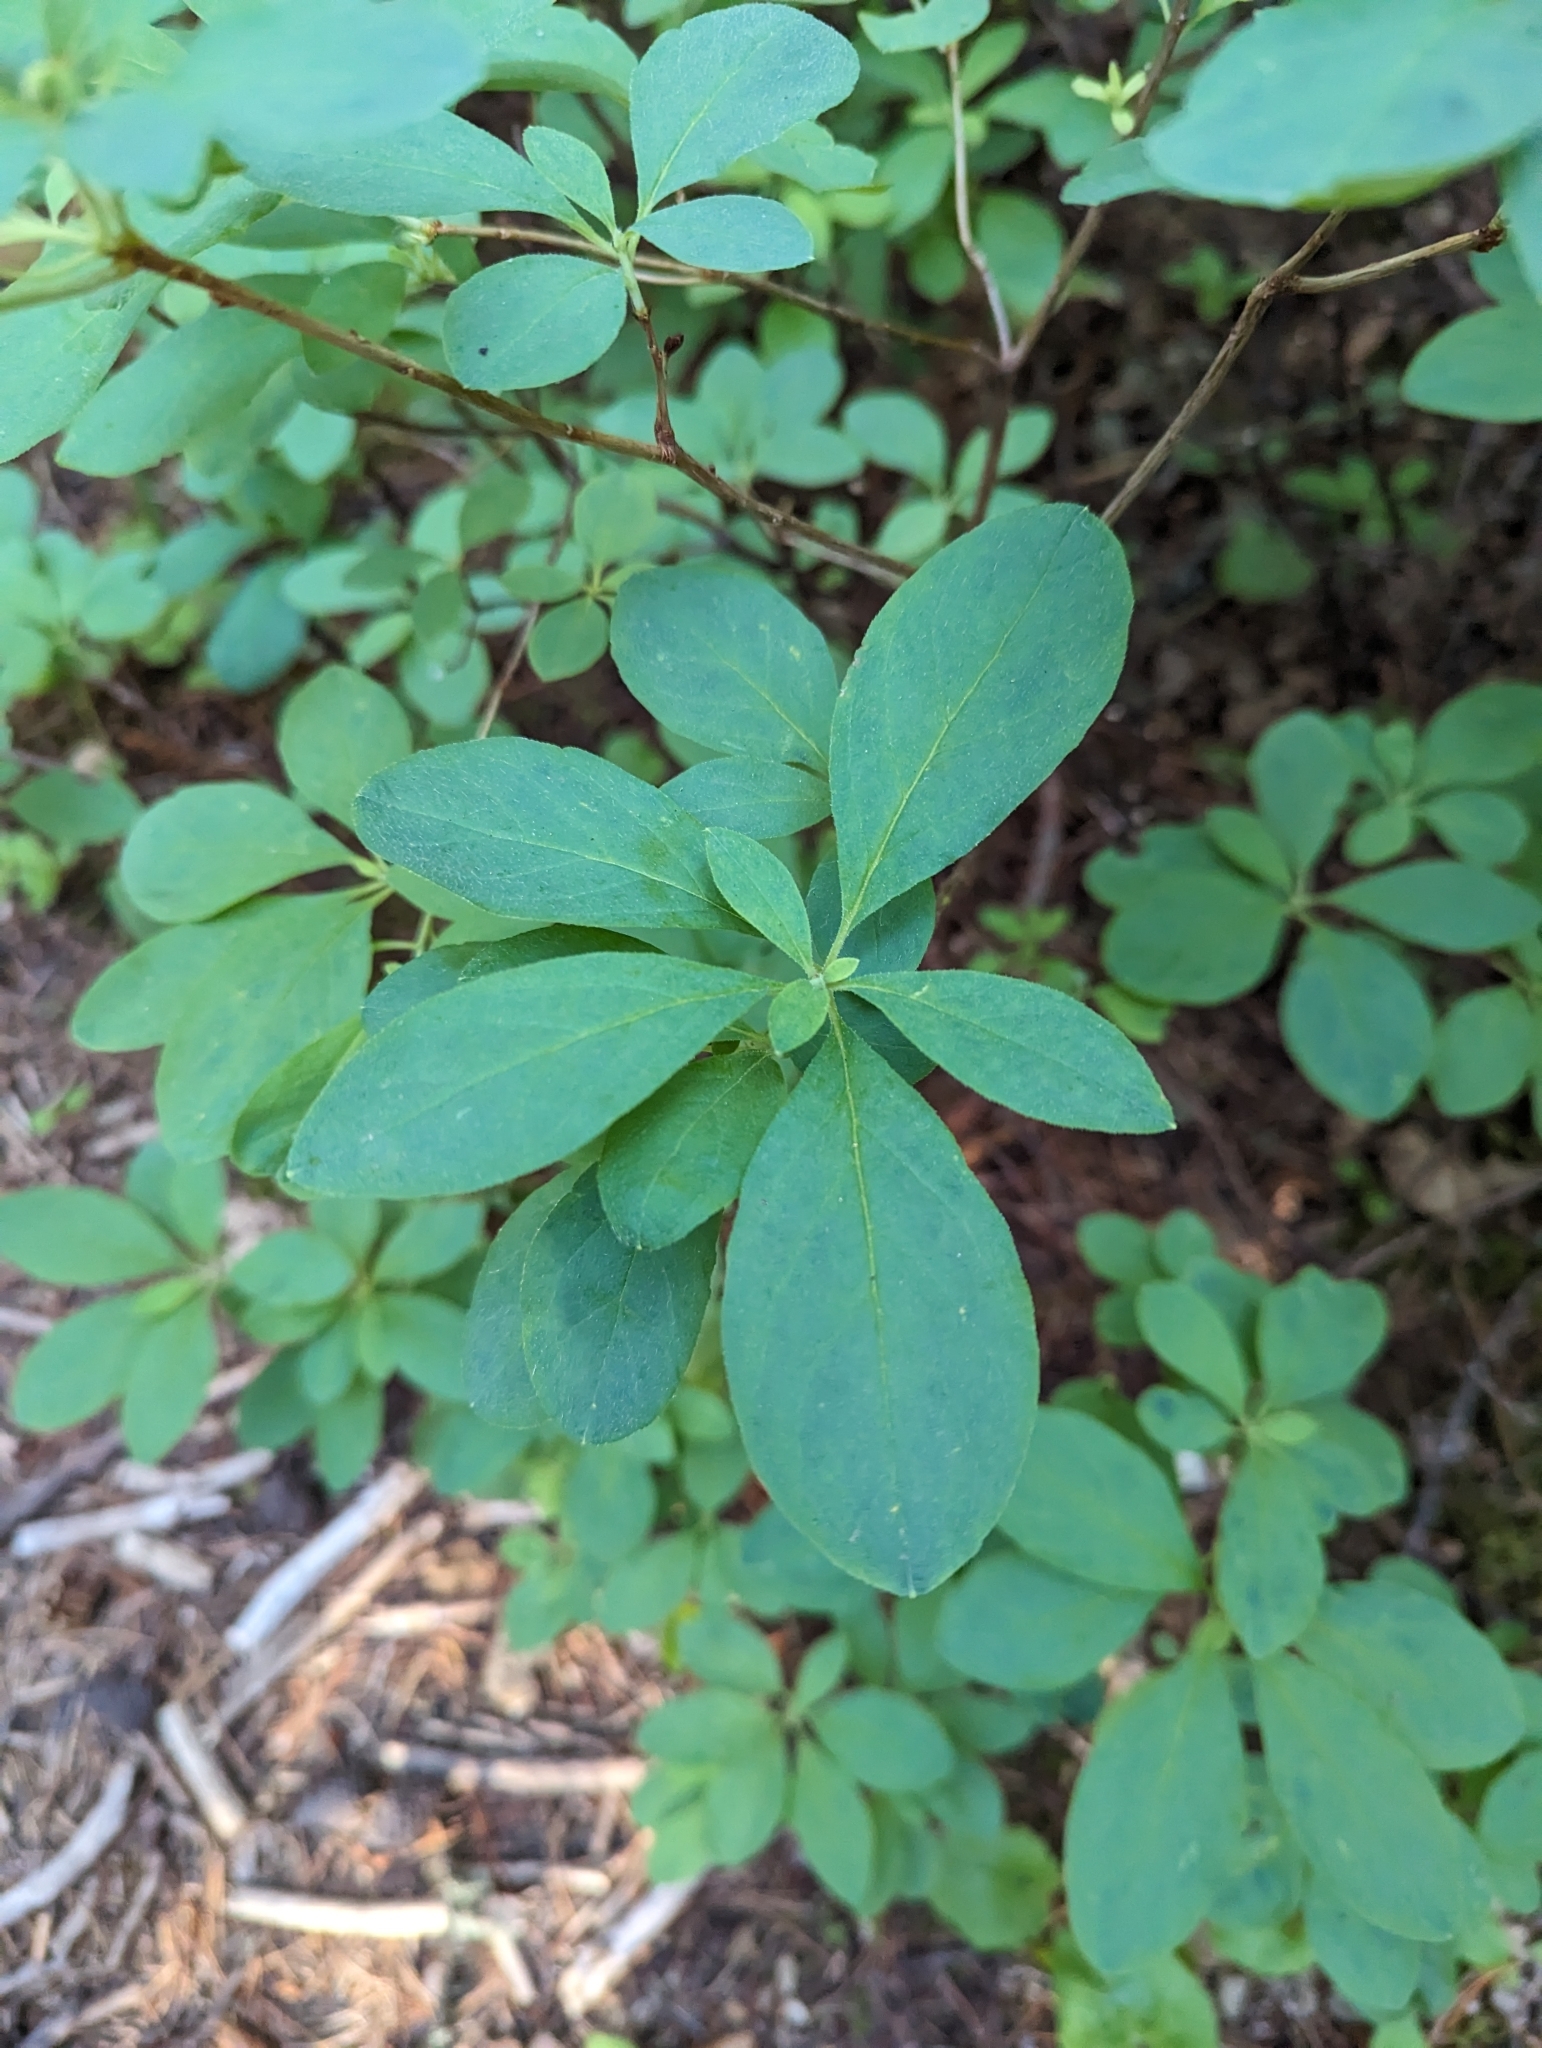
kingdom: Plantae
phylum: Tracheophyta
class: Magnoliopsida
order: Ericales
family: Ericaceae
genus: Rhododendron
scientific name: Rhododendron menziesii
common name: Pacific menziesia
